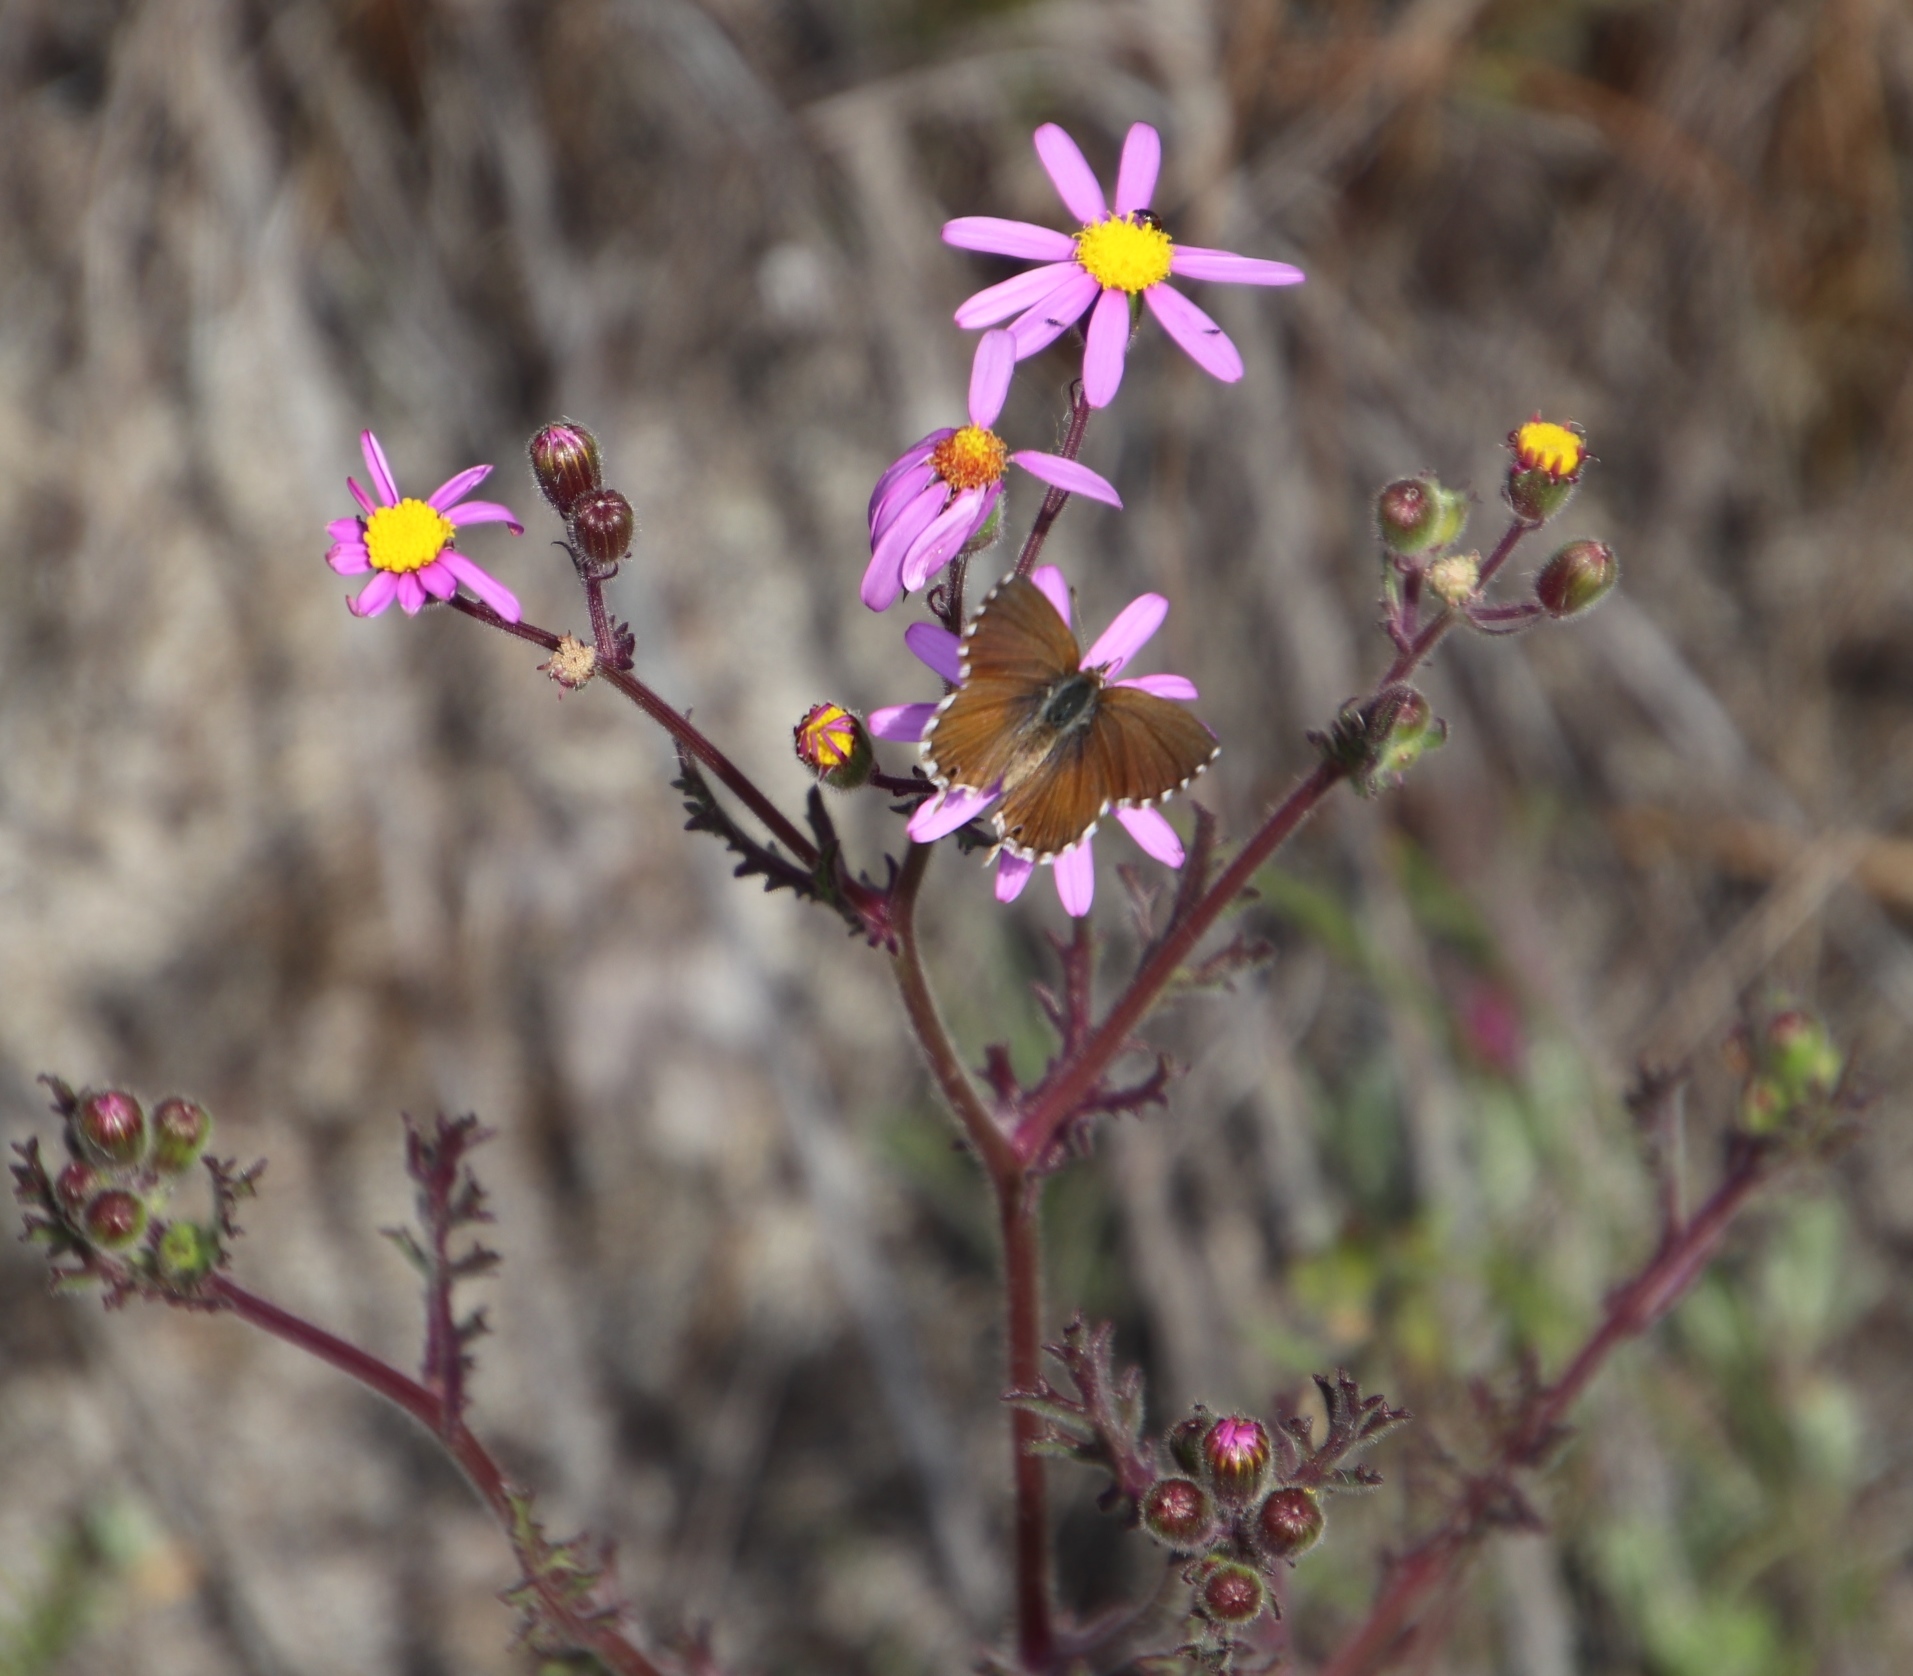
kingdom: Plantae
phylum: Tracheophyta
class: Magnoliopsida
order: Asterales
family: Asteraceae
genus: Senecio
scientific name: Senecio arenarius
